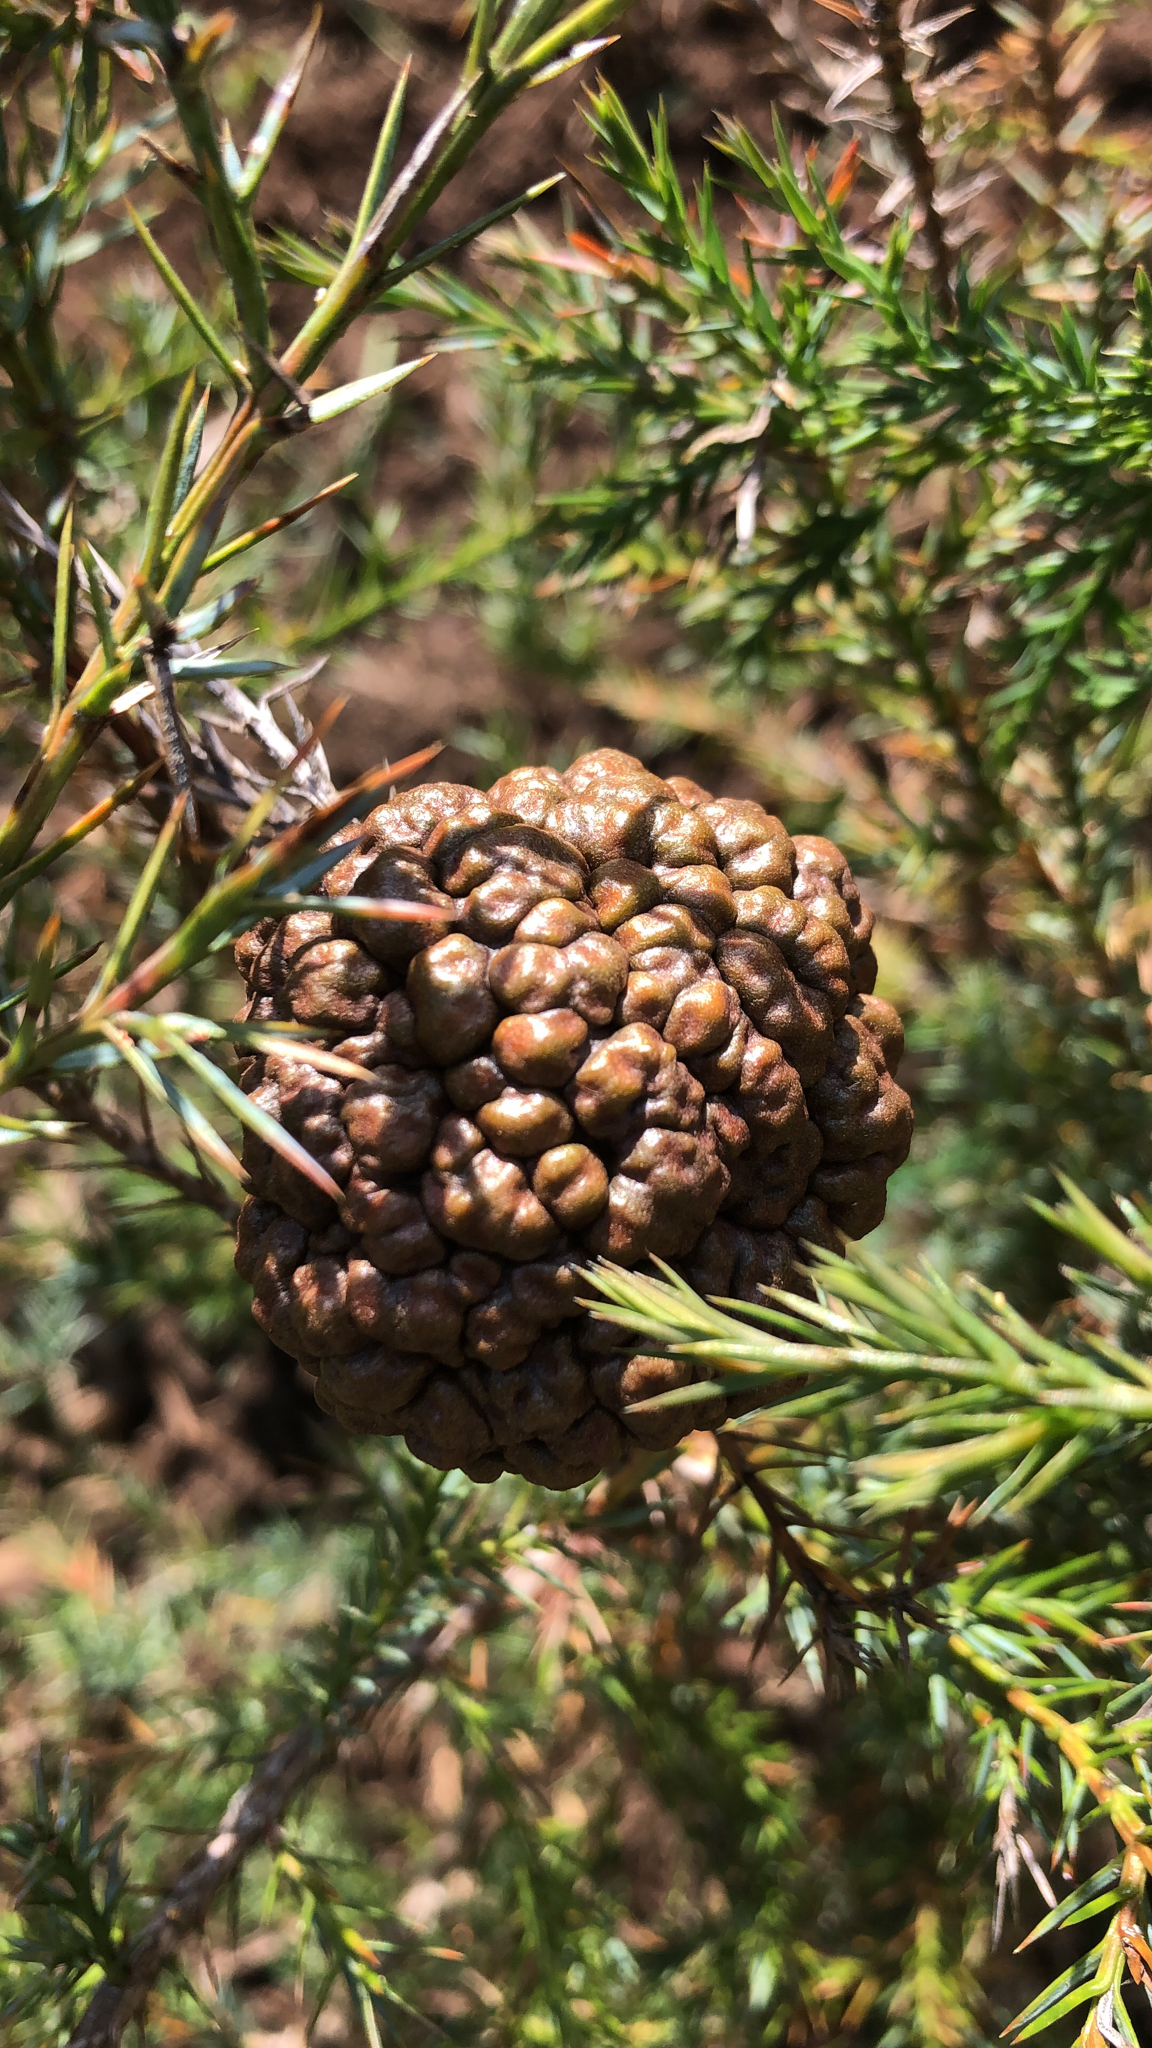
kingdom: Fungi
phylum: Basidiomycota
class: Pucciniomycetes
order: Pucciniales
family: Gymnosporangiaceae
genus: Gymnosporangium
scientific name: Gymnosporangium juniperi-virginianae
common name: Juniper-apple rust
